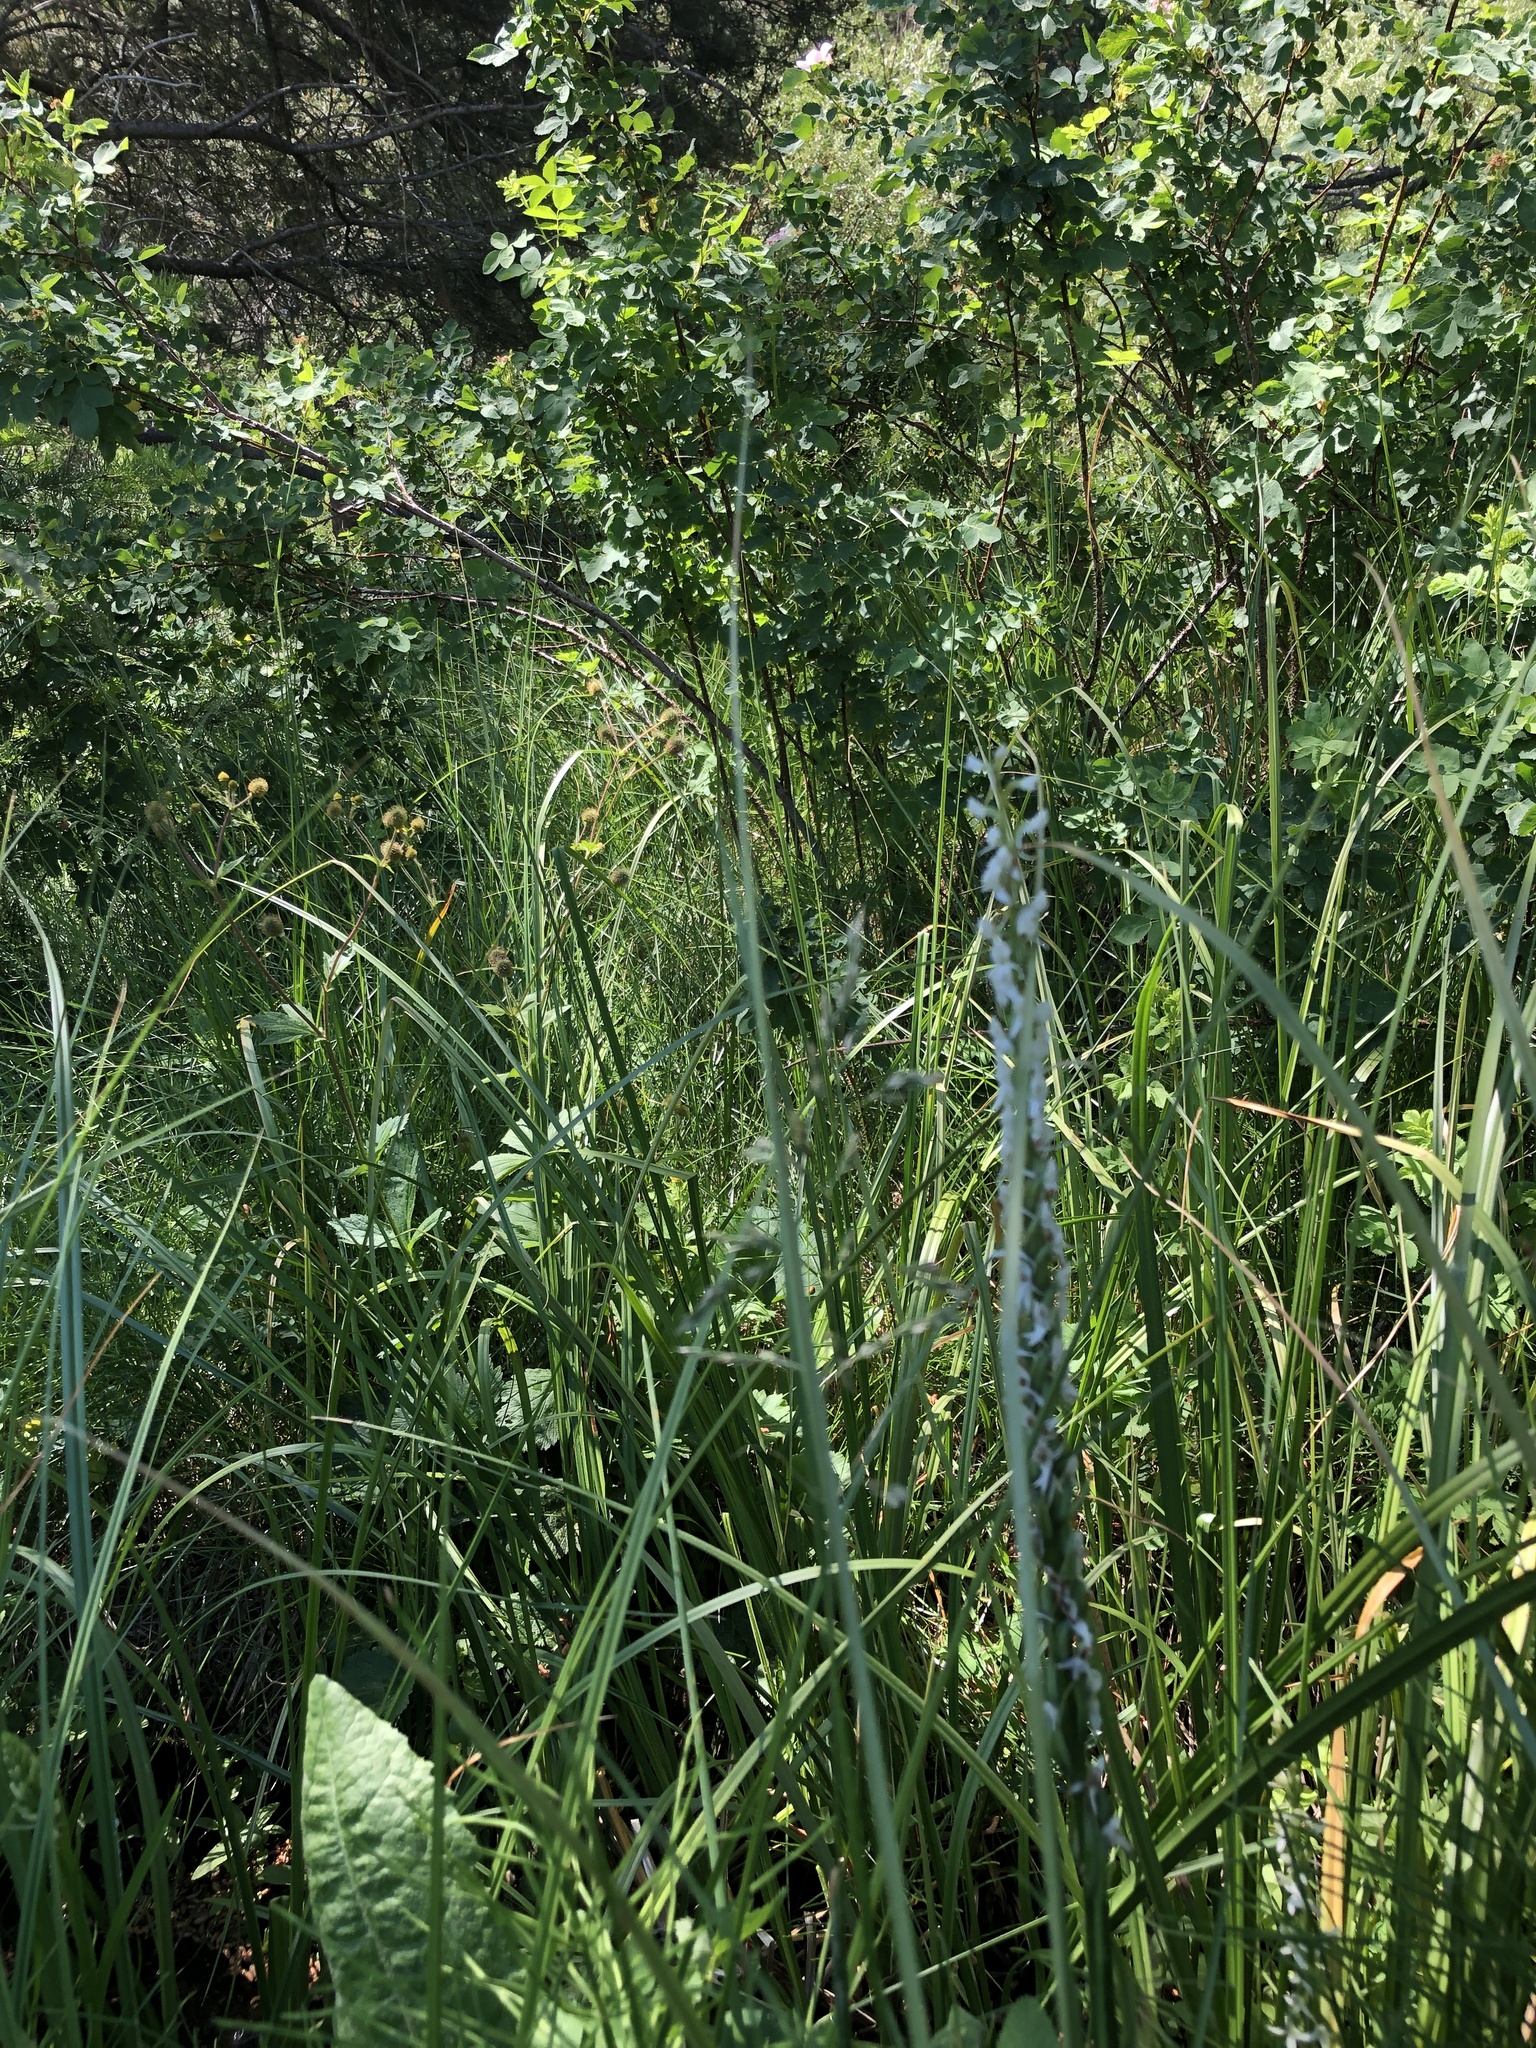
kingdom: Plantae
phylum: Tracheophyta
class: Liliopsida
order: Asparagales
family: Orchidaceae
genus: Platanthera
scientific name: Platanthera dilatata
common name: Bog candles
